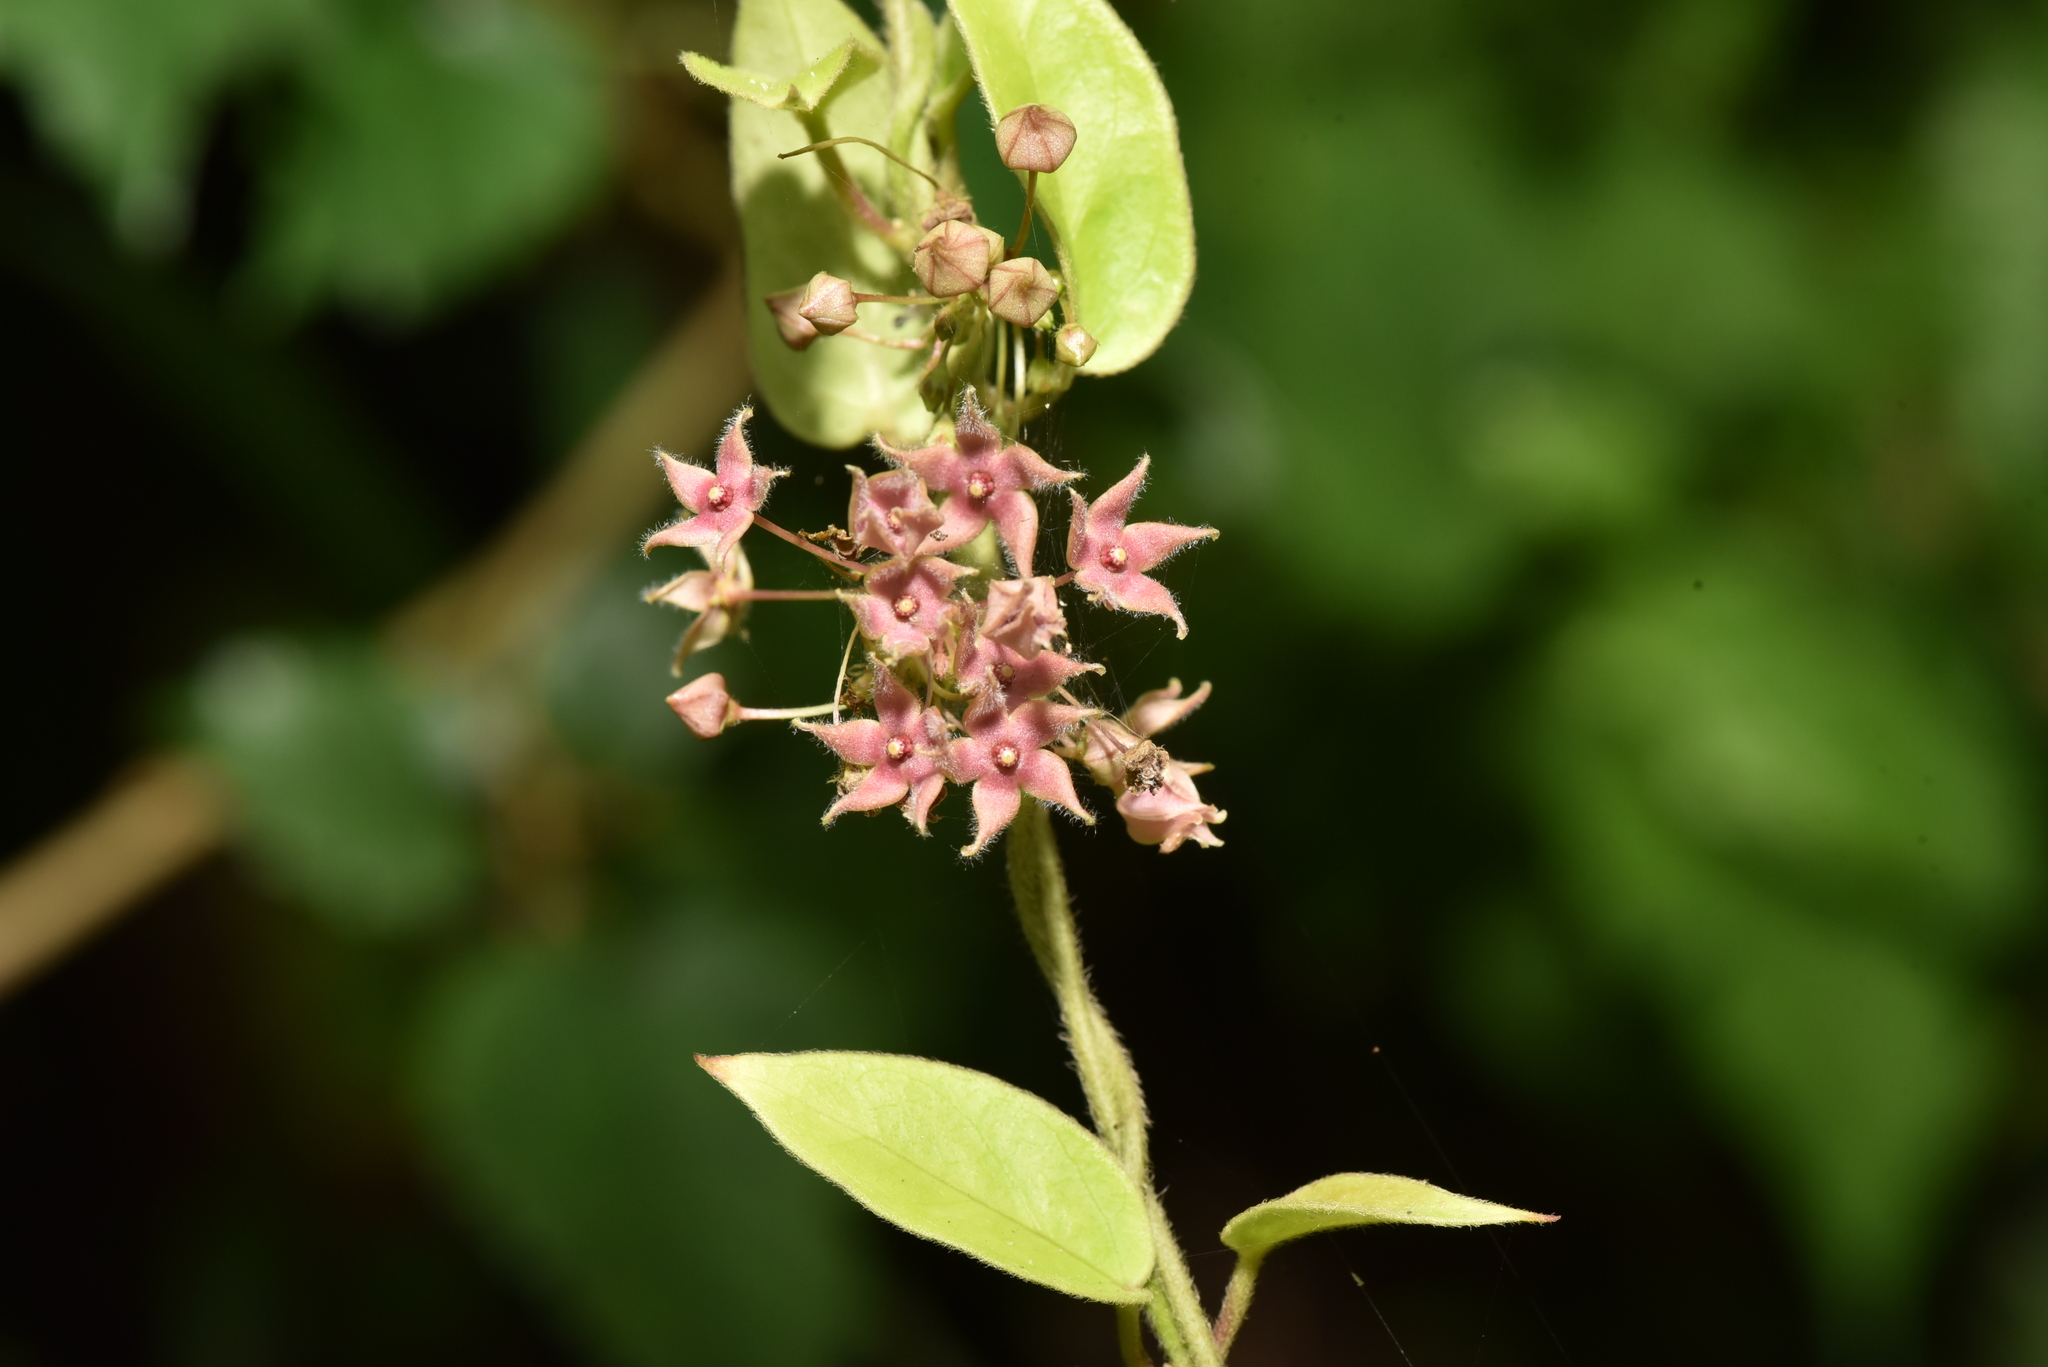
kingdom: Plantae
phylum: Tracheophyta
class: Magnoliopsida
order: Gentianales
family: Apocynaceae
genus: Vincetoxicum
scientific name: Vincetoxicum hirsutum
